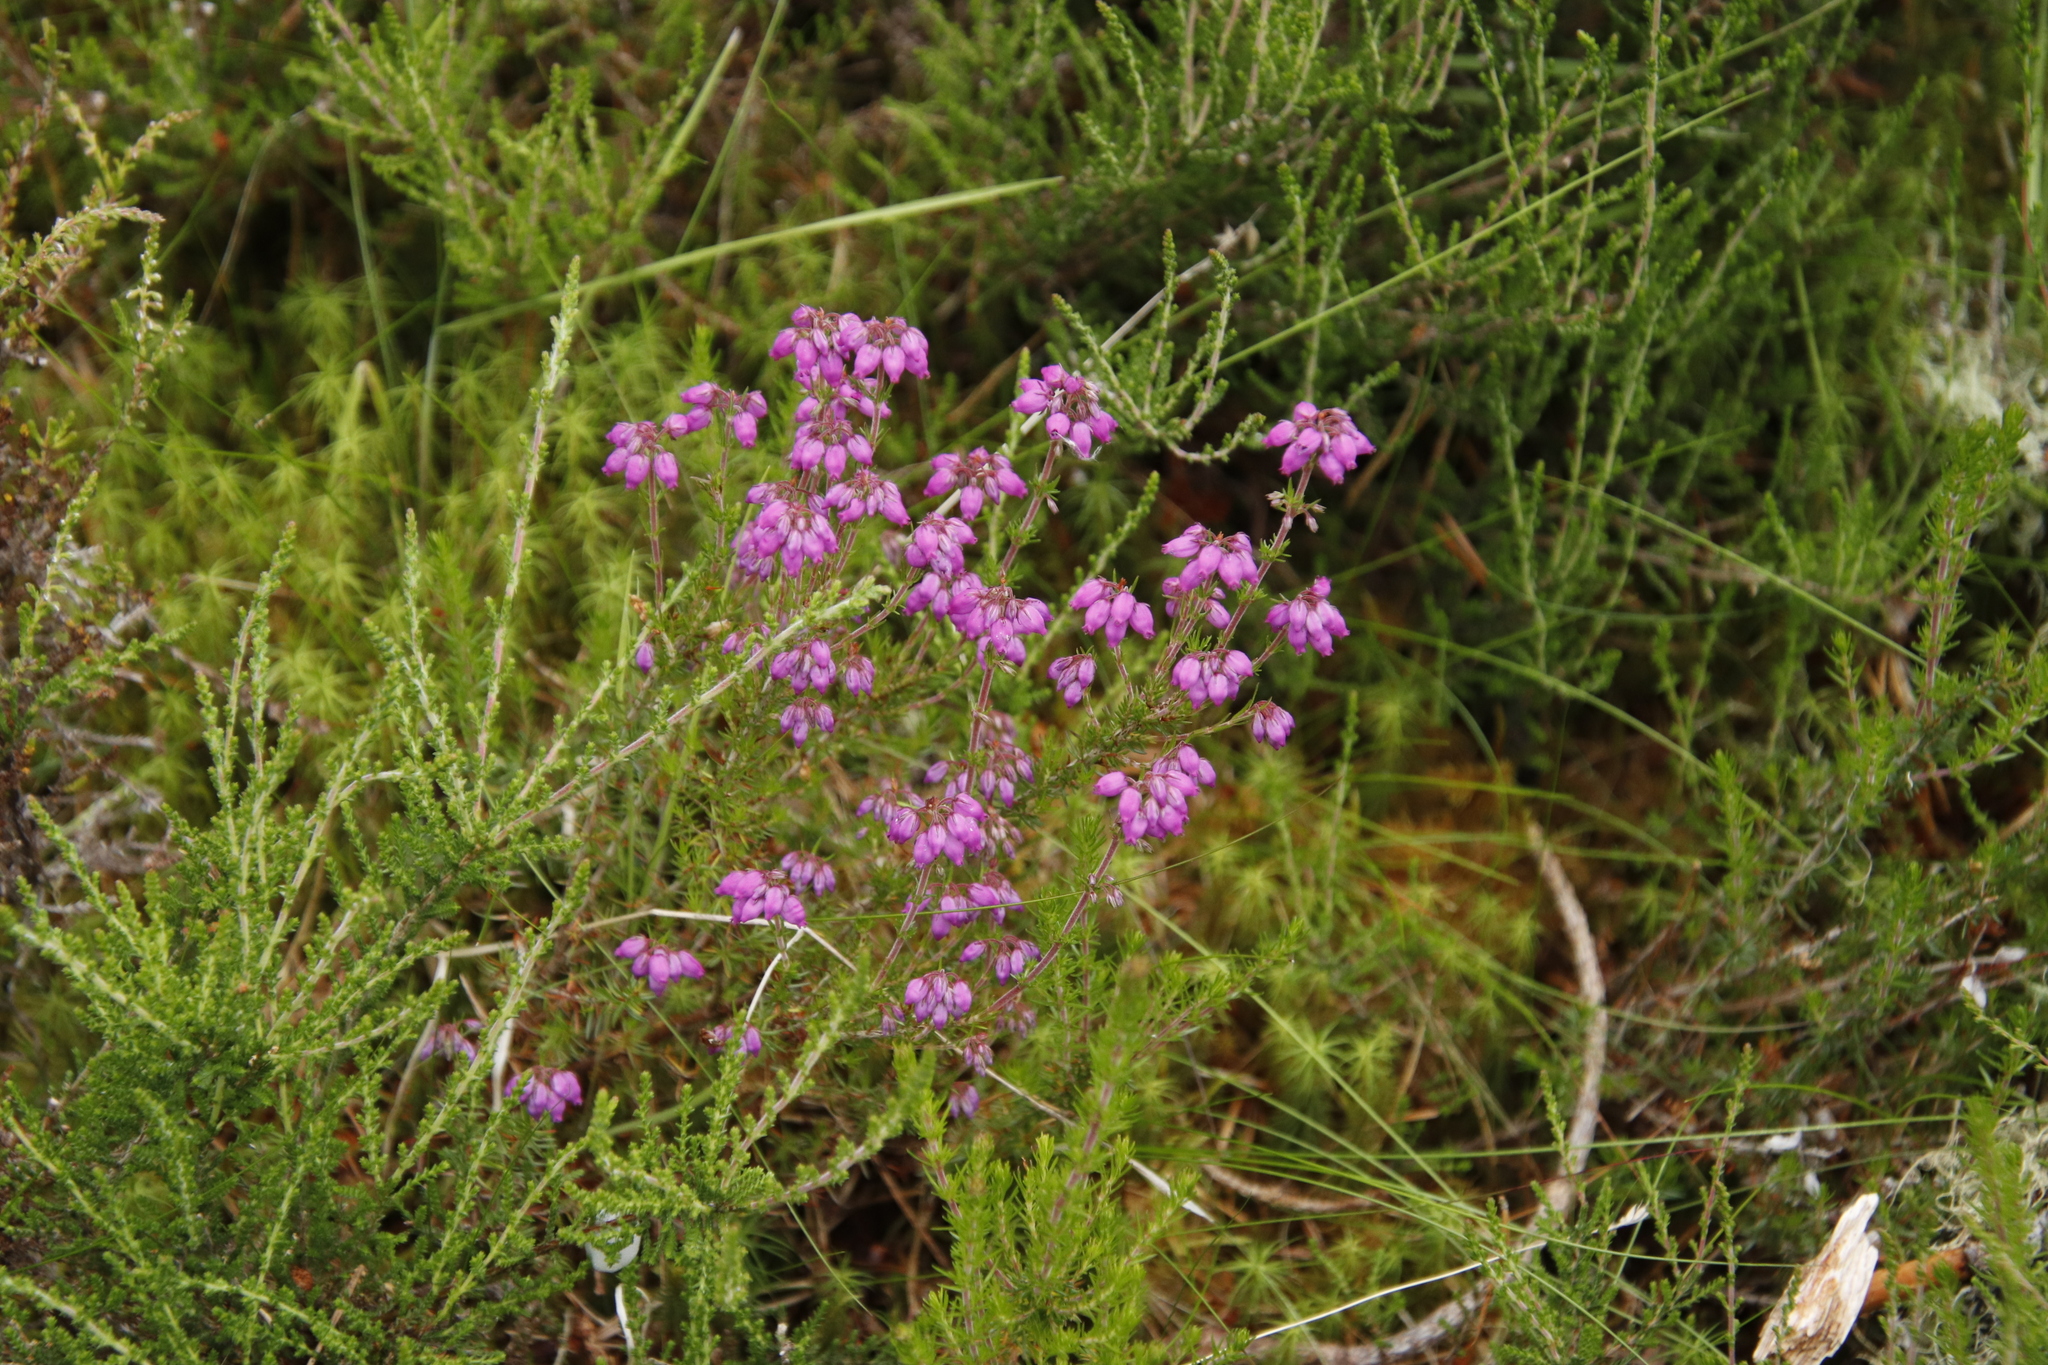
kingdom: Plantae
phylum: Tracheophyta
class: Magnoliopsida
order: Ericales
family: Ericaceae
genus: Erica
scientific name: Erica cinerea
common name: Bell heather
